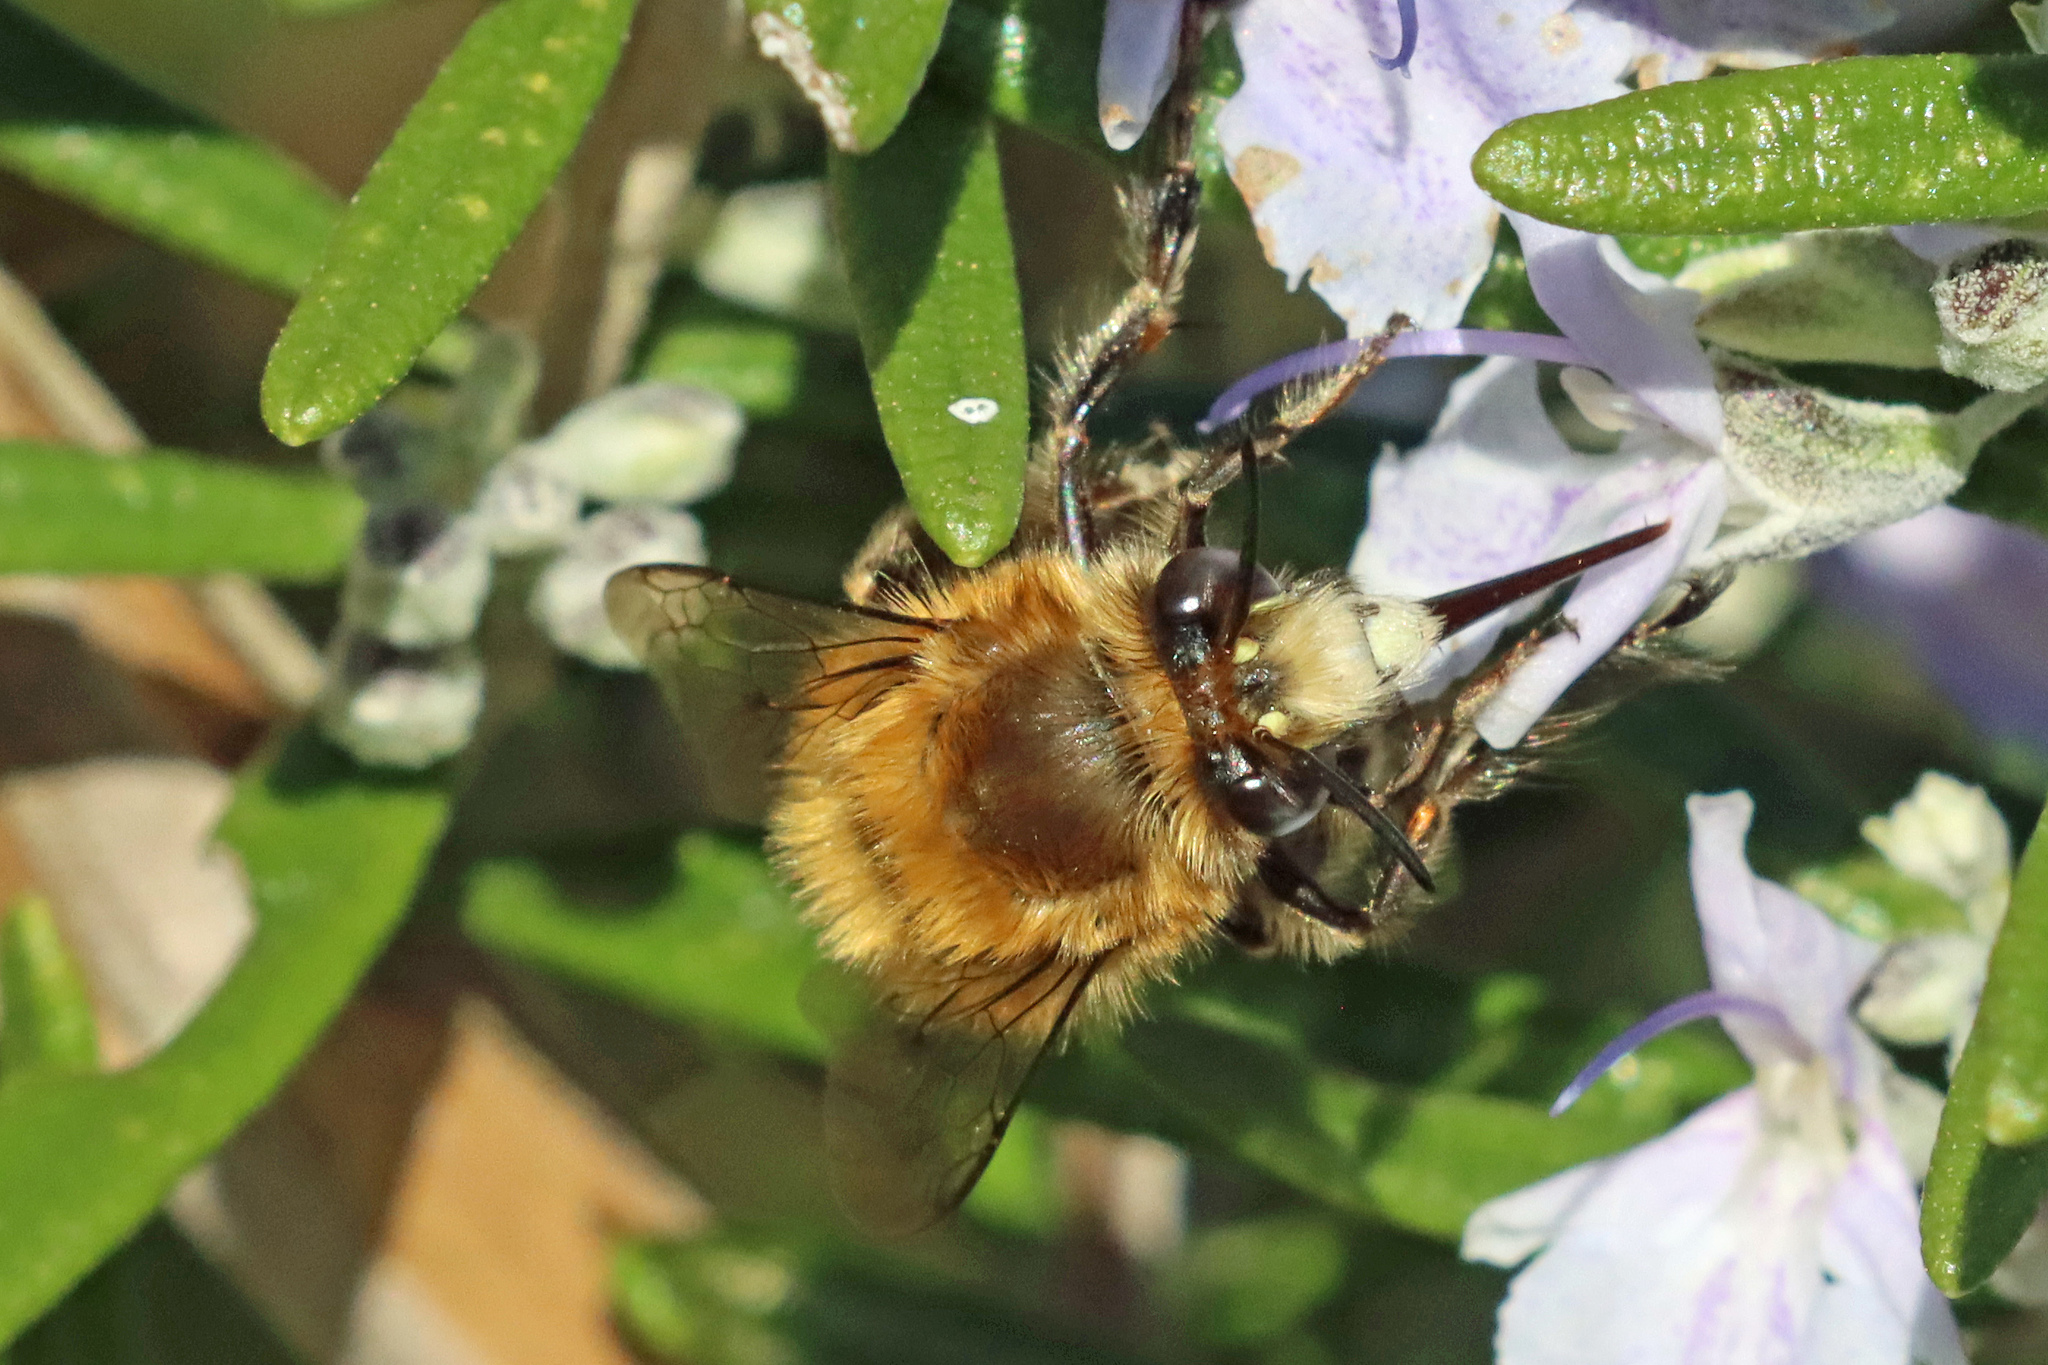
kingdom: Animalia
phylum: Arthropoda
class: Insecta
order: Hymenoptera
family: Apidae
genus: Anthophora
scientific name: Anthophora plumipes
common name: Hairy-footed flower bee
